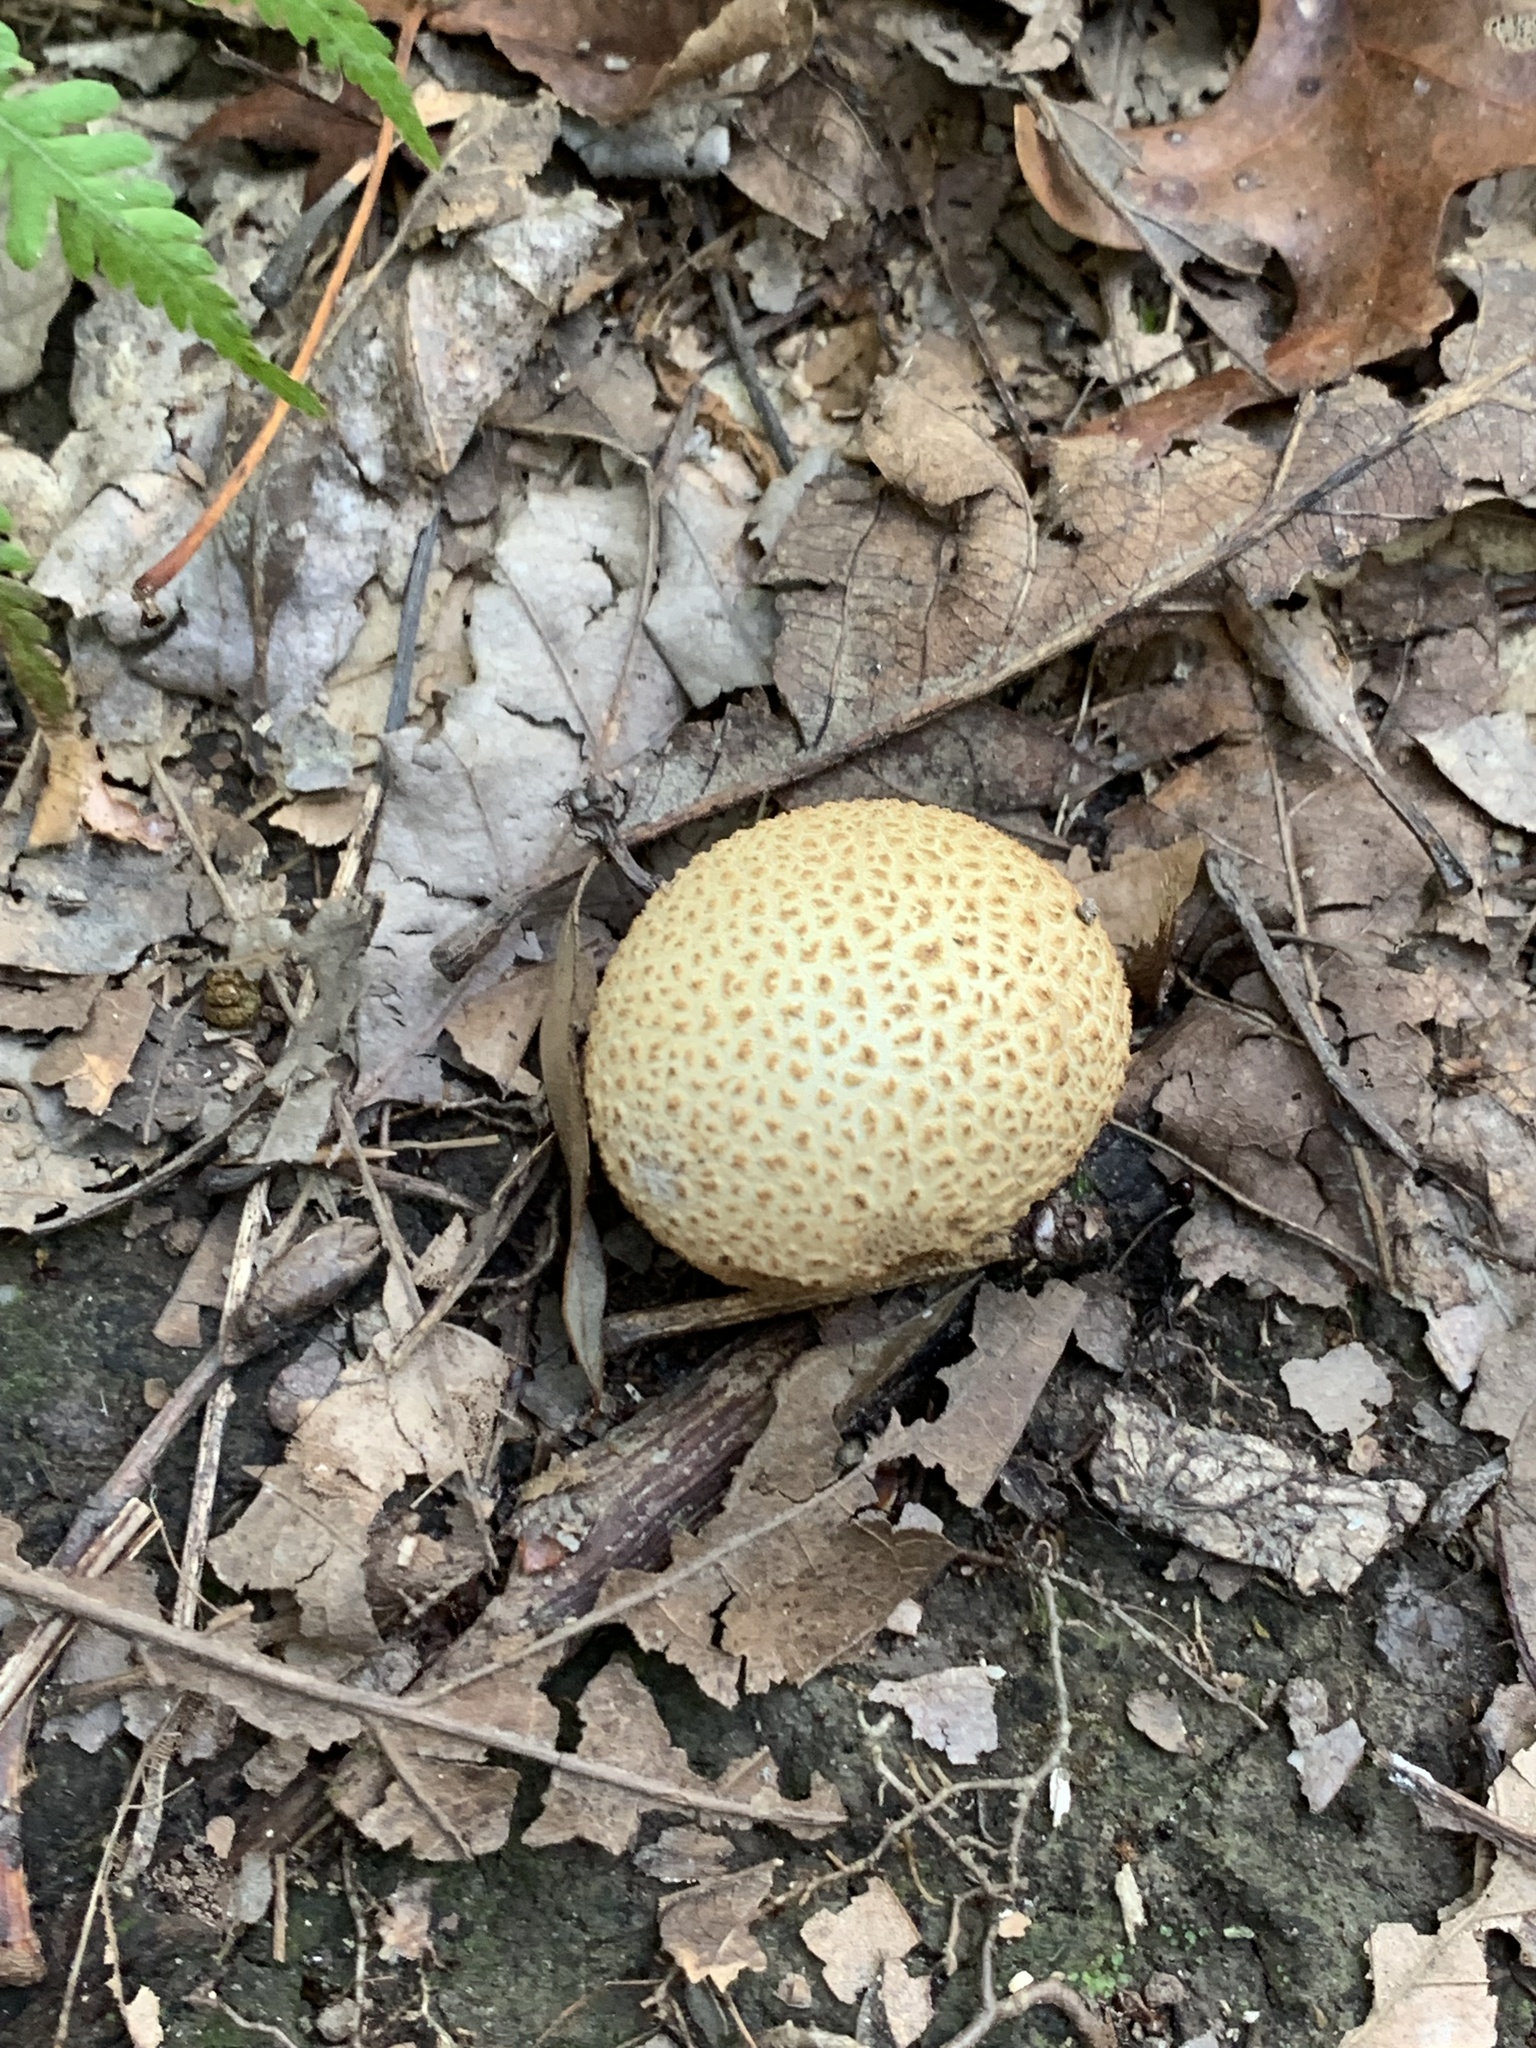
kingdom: Fungi
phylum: Basidiomycota
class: Agaricomycetes
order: Boletales
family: Sclerodermataceae
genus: Scleroderma
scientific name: Scleroderma citrinum
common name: Common earthball
